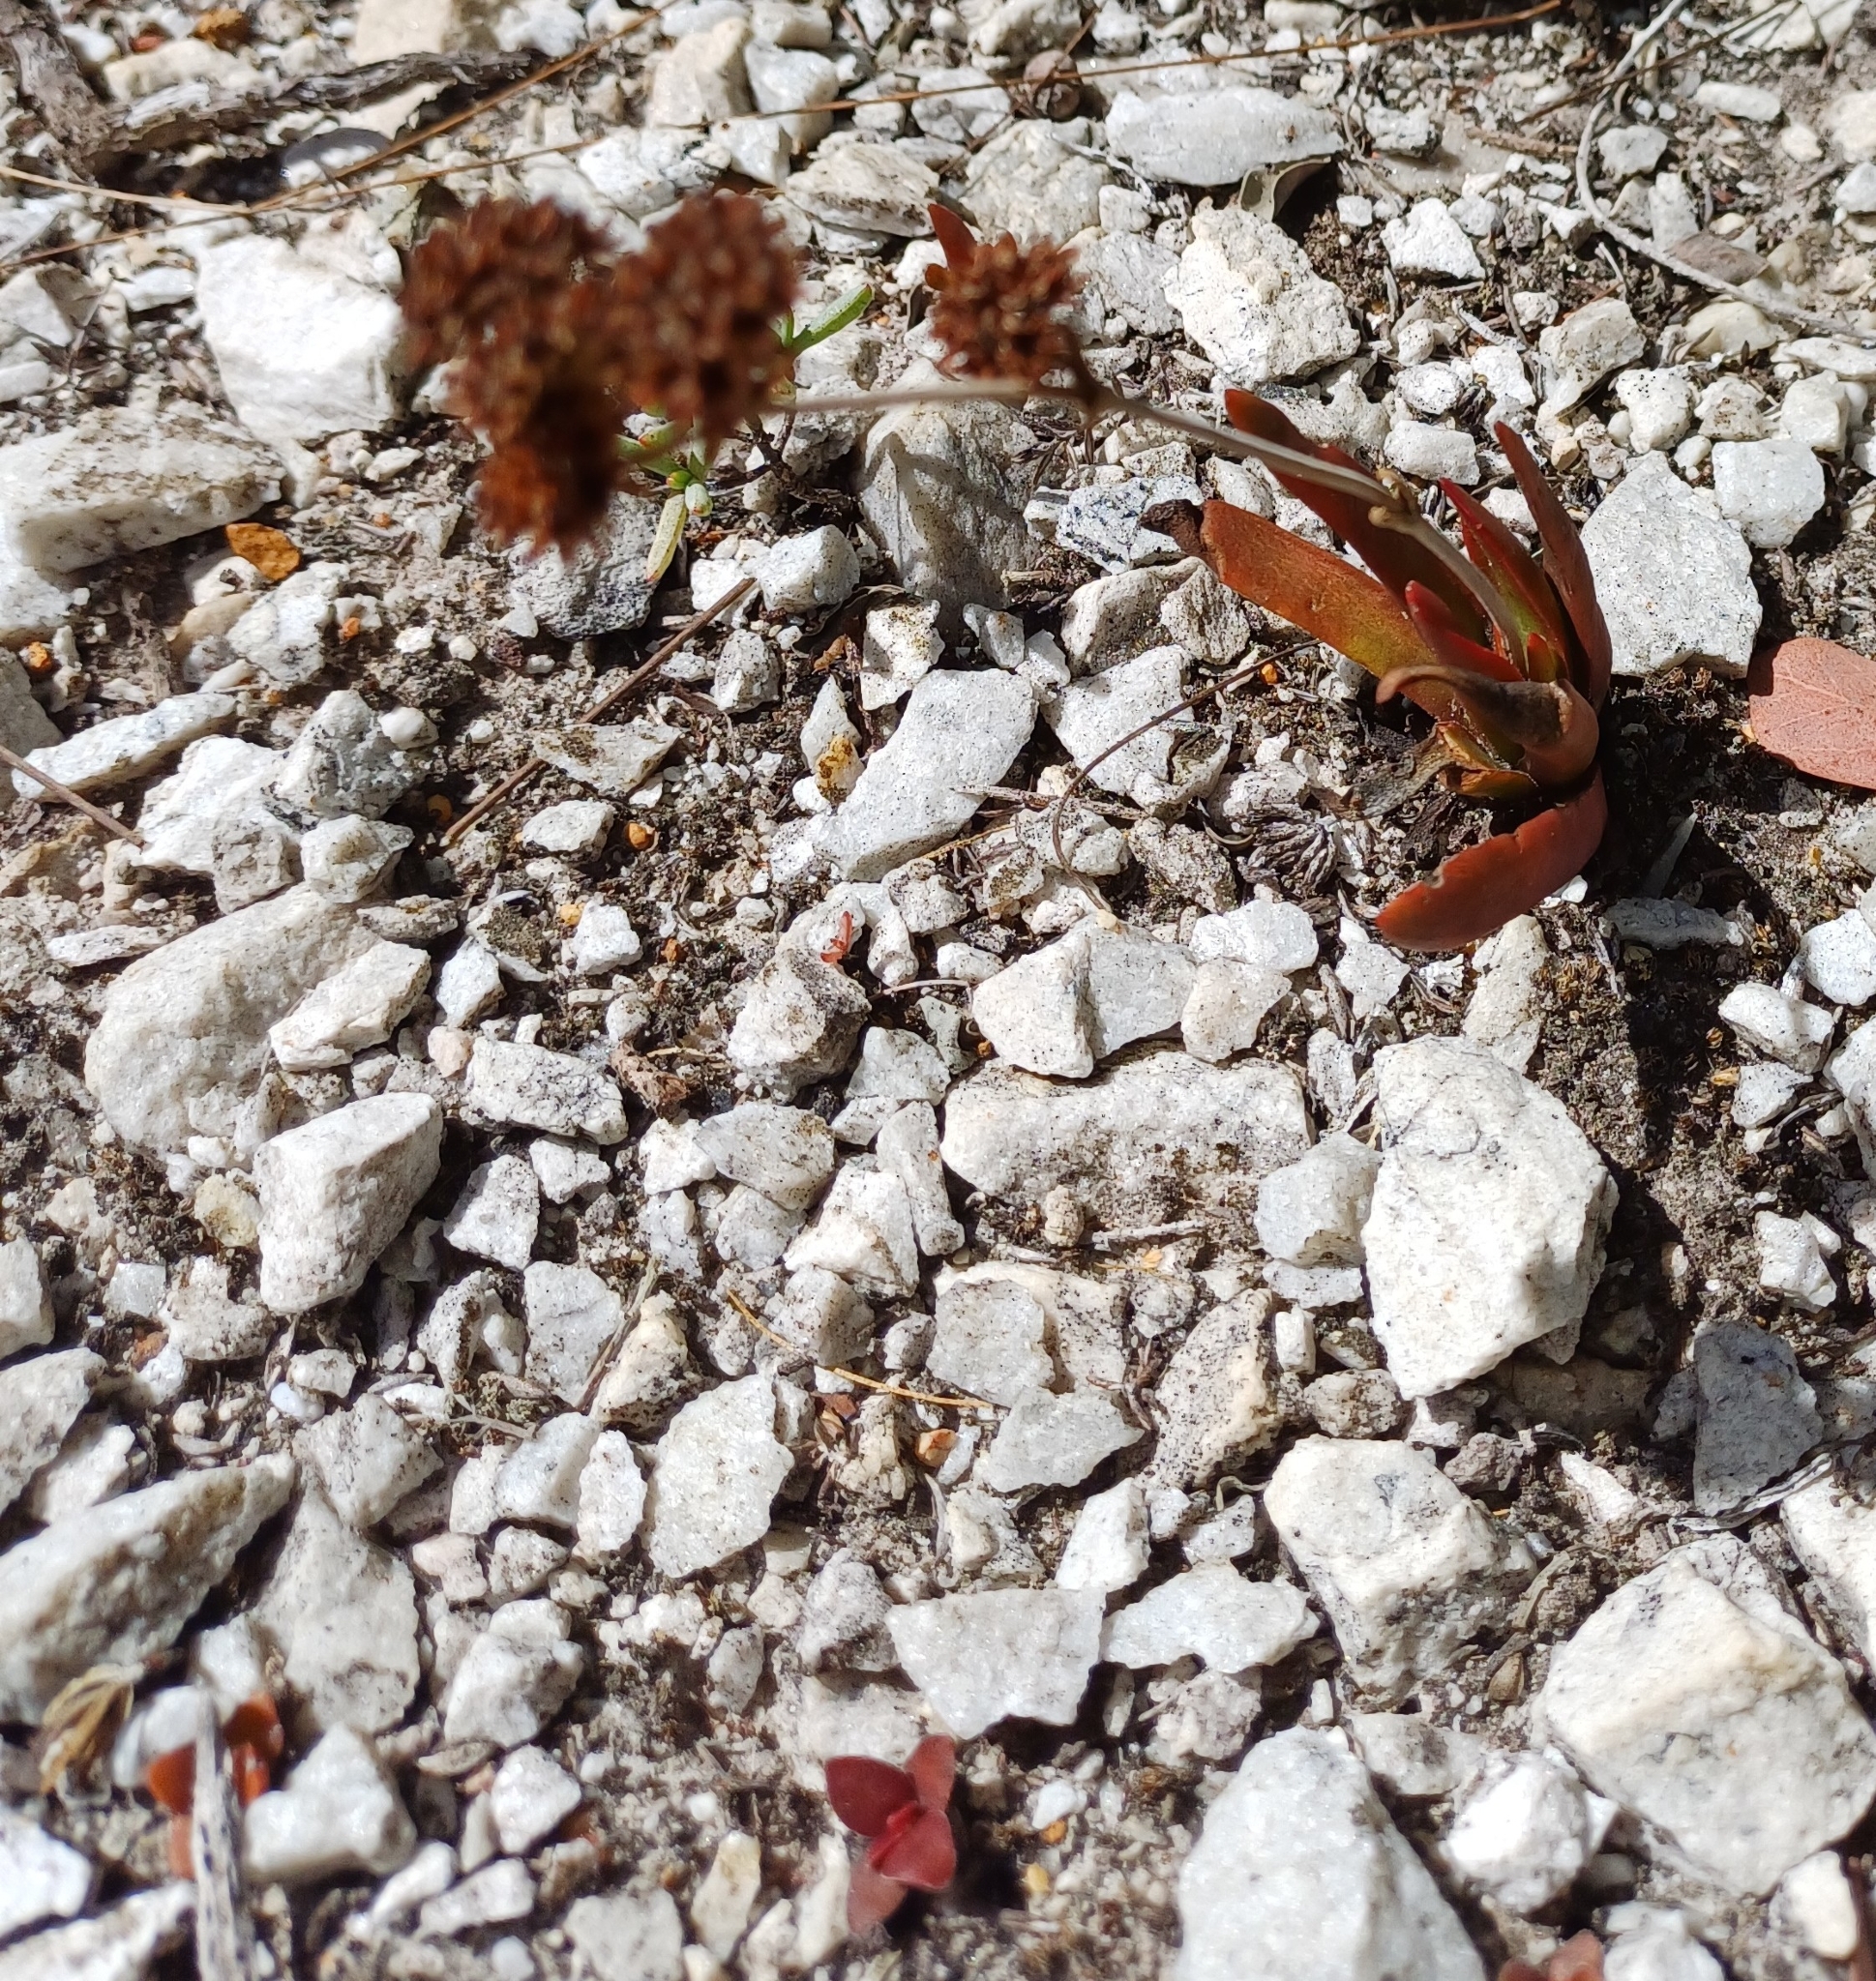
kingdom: Plantae
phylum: Tracheophyta
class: Magnoliopsida
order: Saxifragales
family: Crassulaceae
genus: Crassula
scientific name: Crassula nudicaulis
